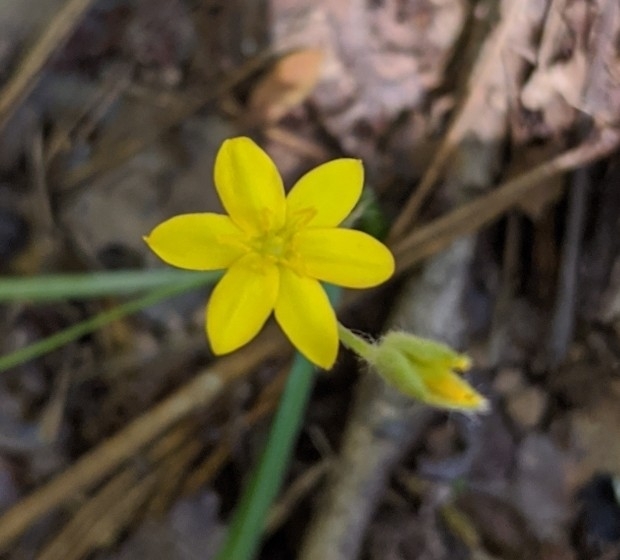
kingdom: Plantae
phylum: Tracheophyta
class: Liliopsida
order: Asparagales
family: Hypoxidaceae
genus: Hypoxis
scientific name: Hypoxis hirsuta
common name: Common goldstar
